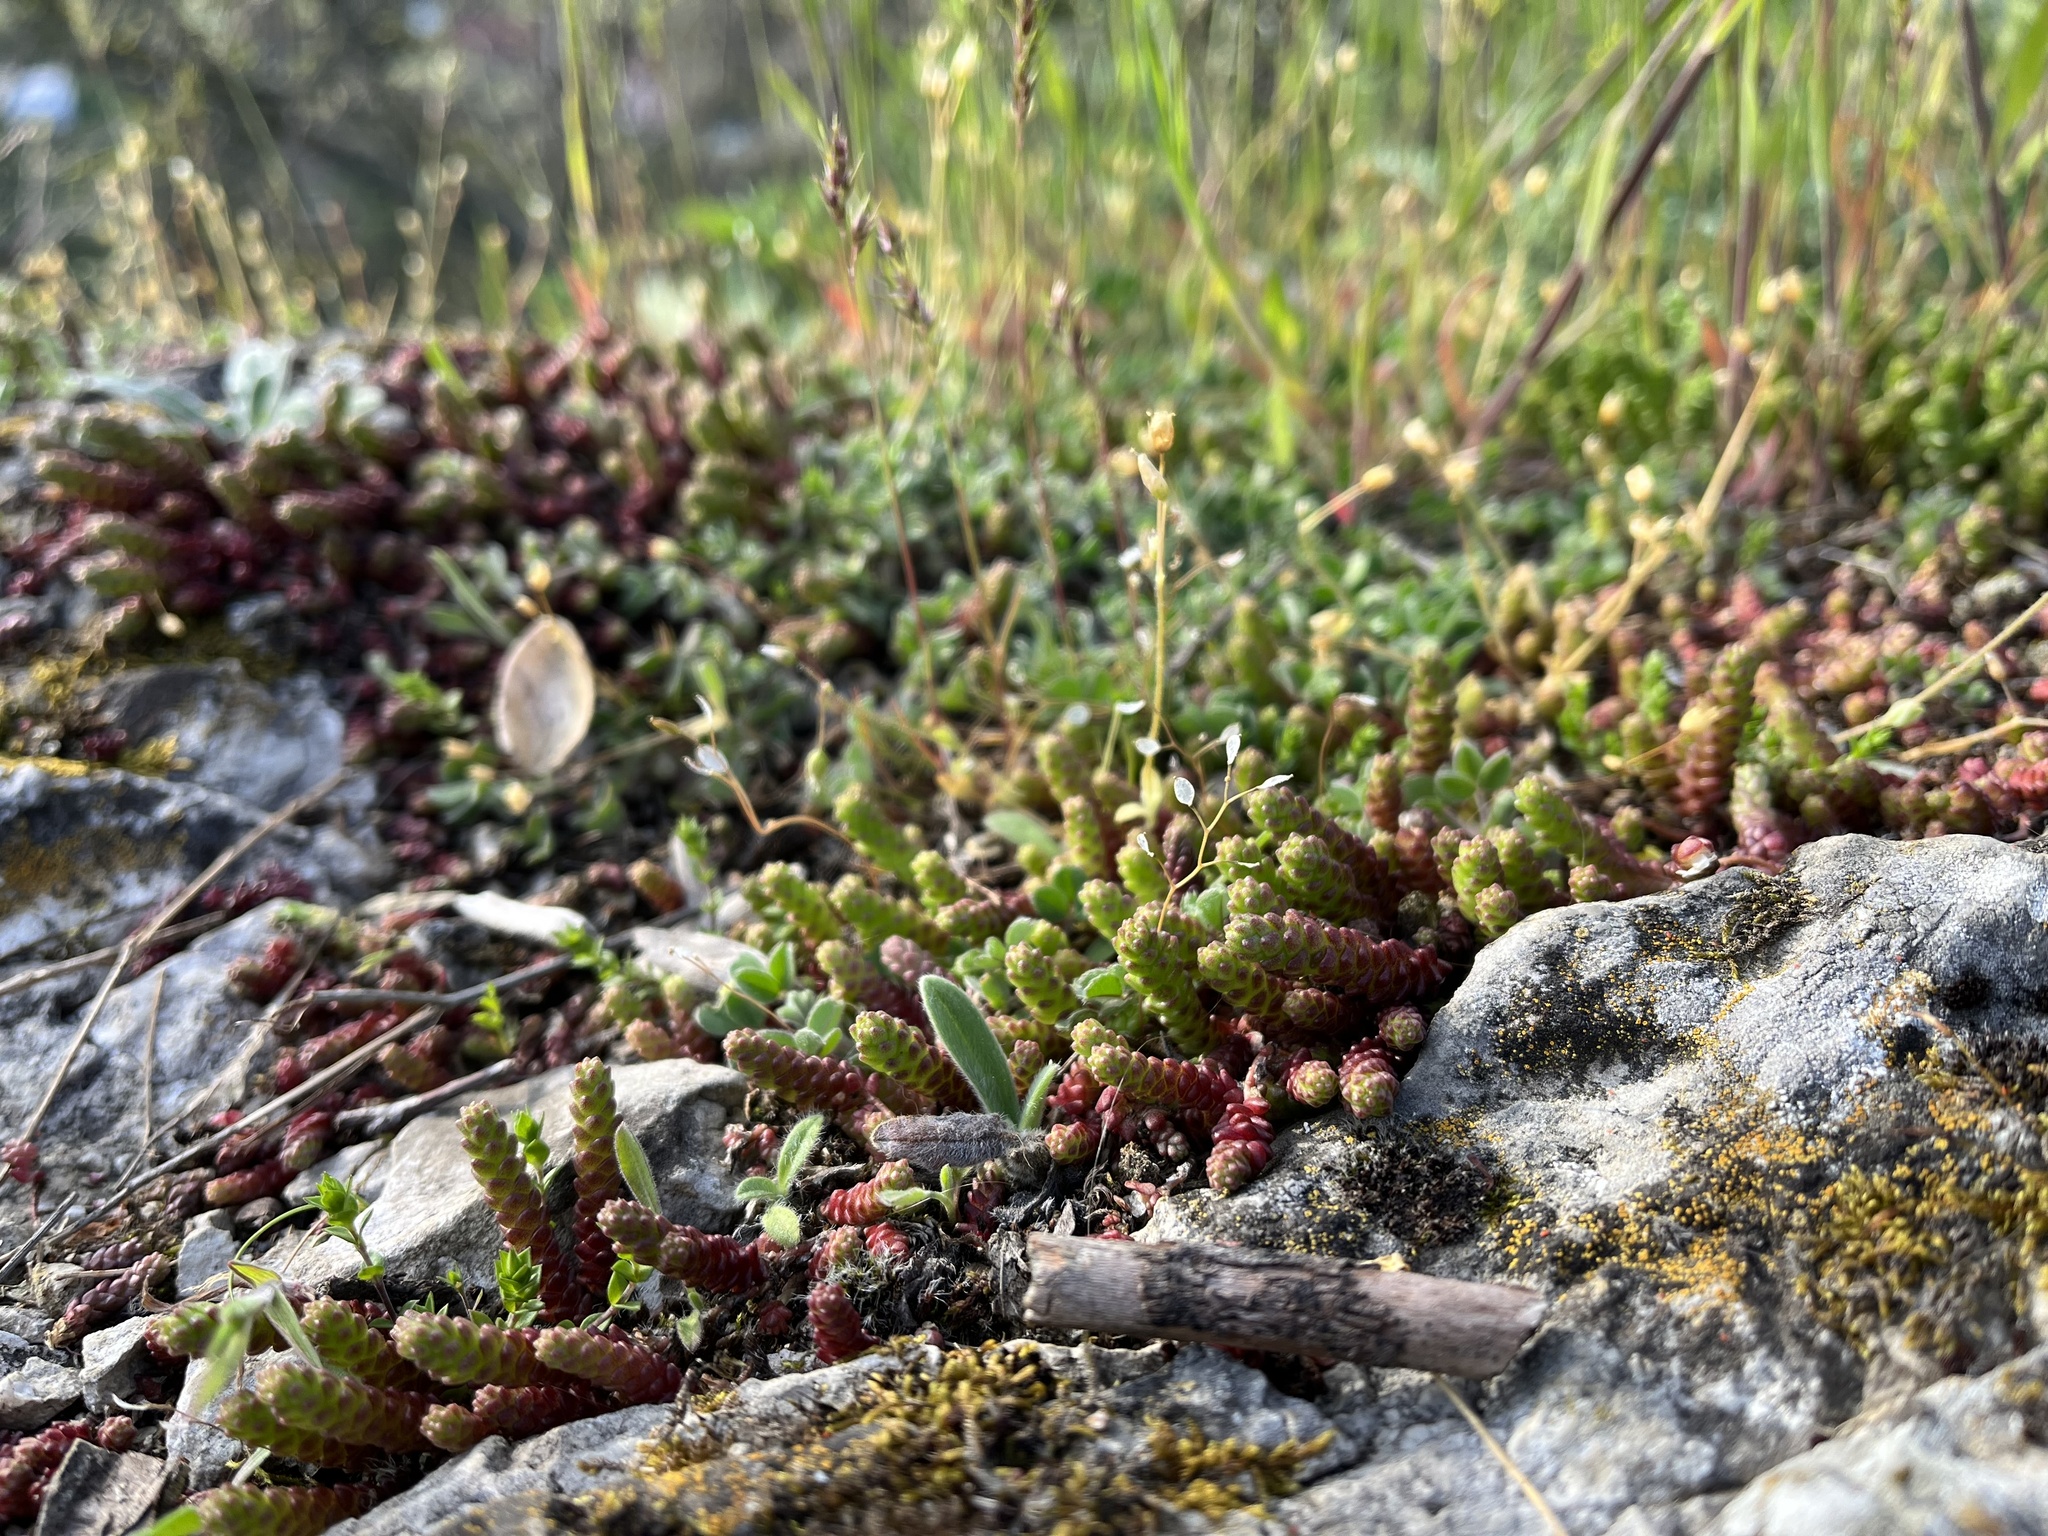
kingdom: Plantae
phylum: Tracheophyta
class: Magnoliopsida
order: Saxifragales
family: Crassulaceae
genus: Sedum
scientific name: Sedum acre
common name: Biting stonecrop
